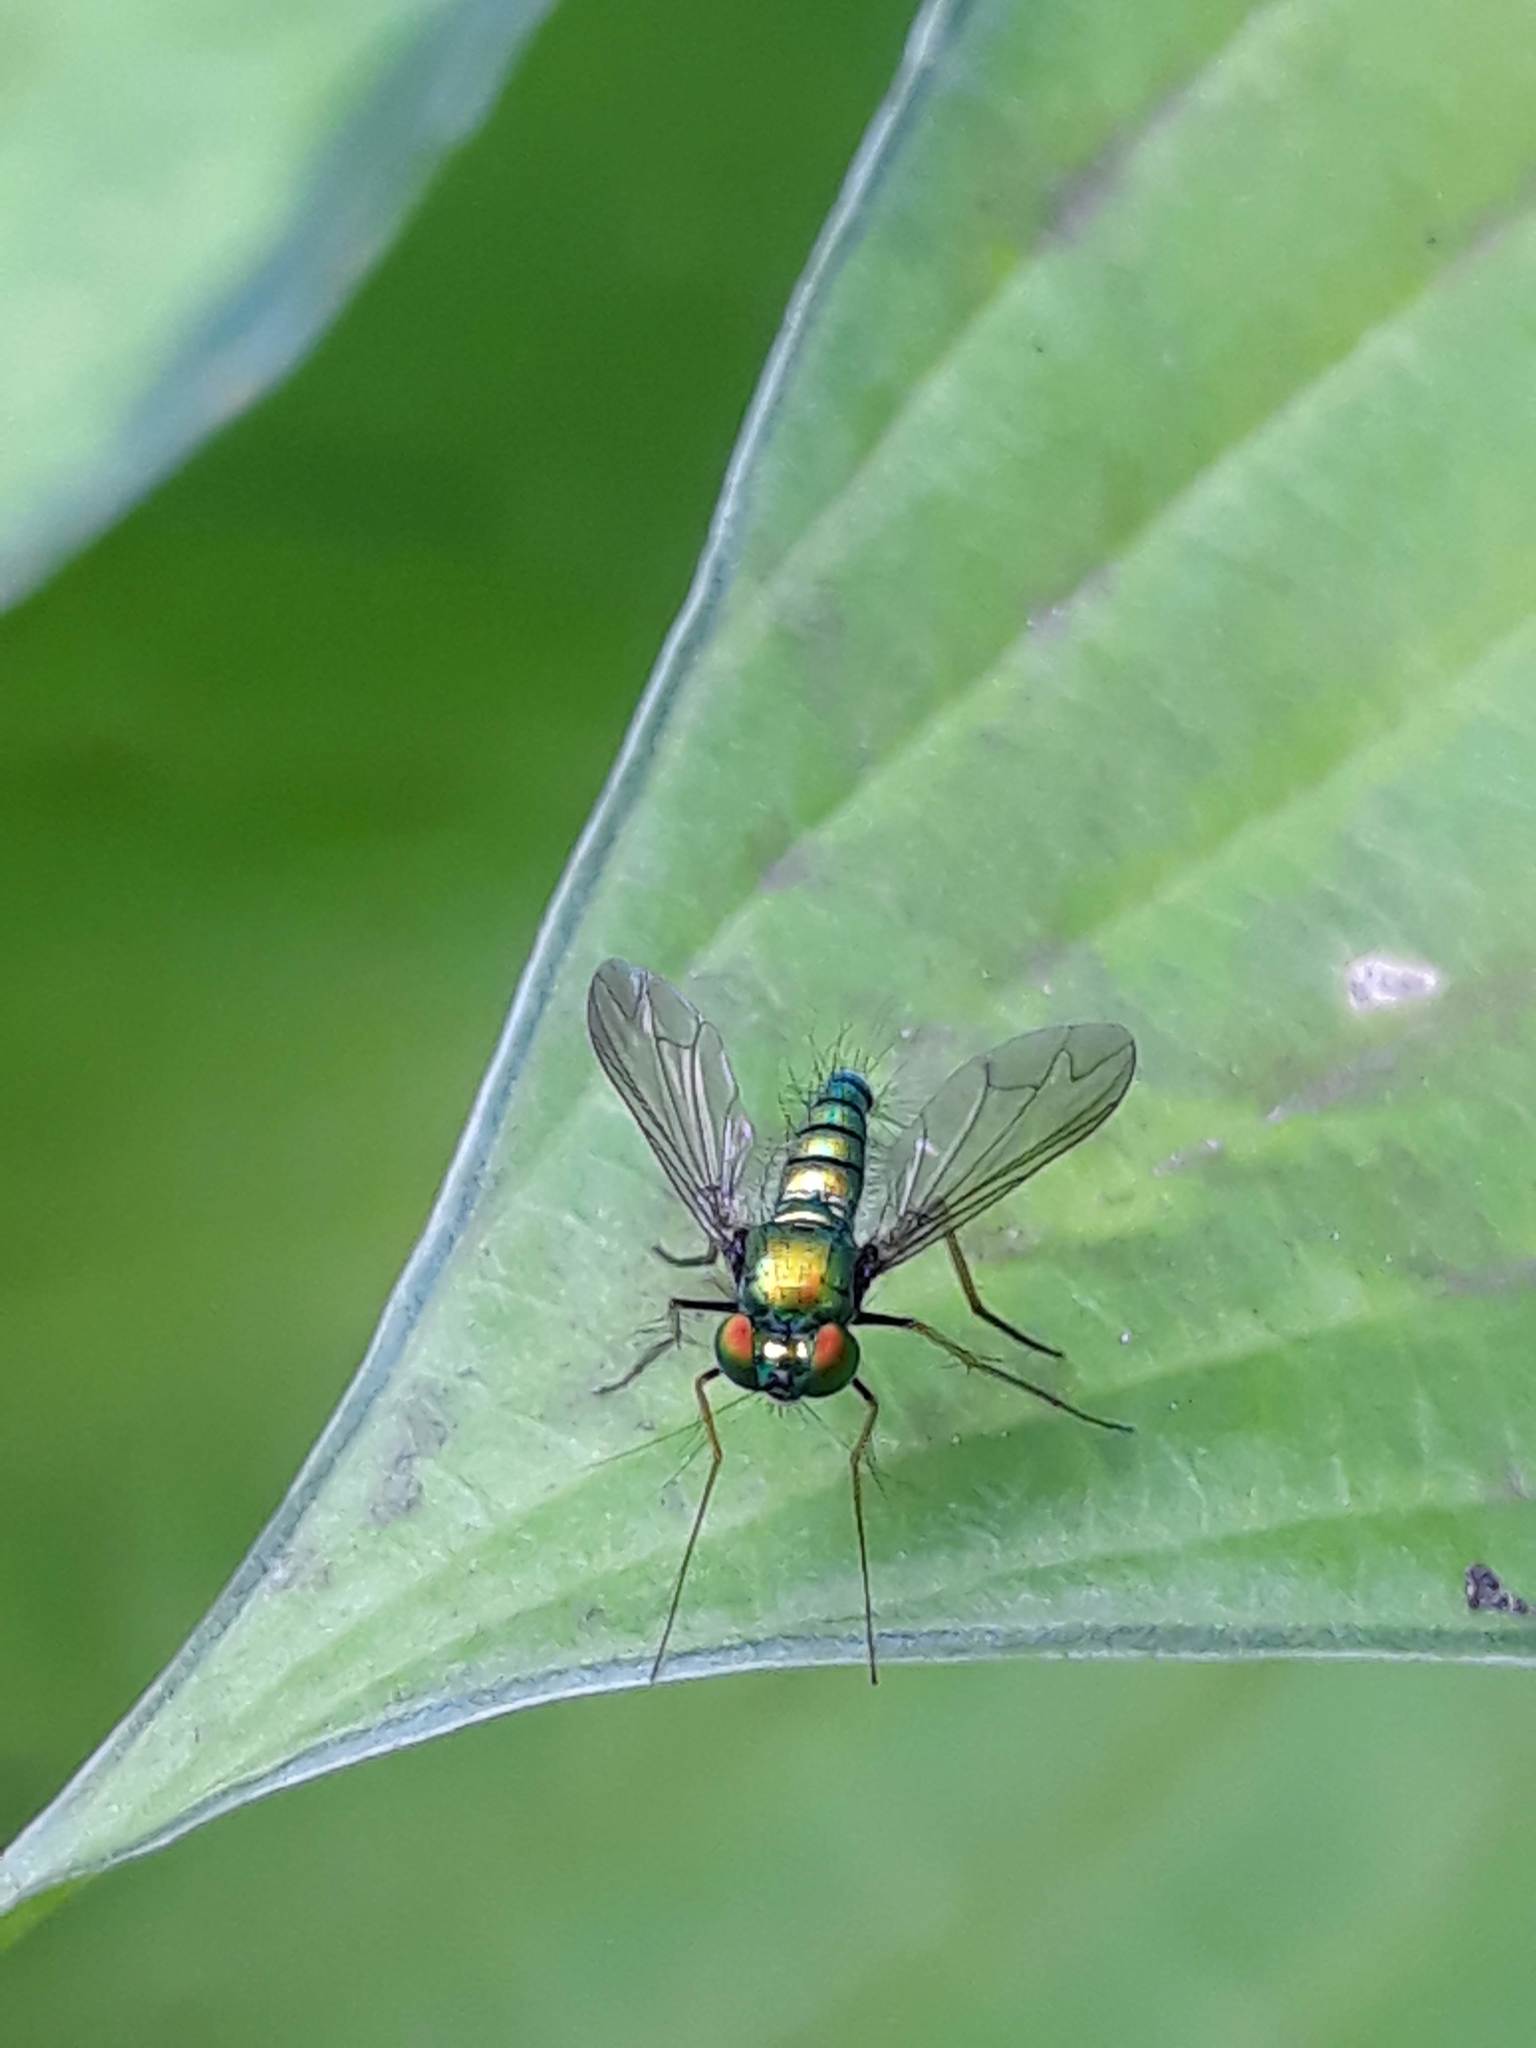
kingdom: Animalia
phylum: Arthropoda
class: Insecta
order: Diptera
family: Dolichopodidae
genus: Condylostylus
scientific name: Condylostylus comatus
